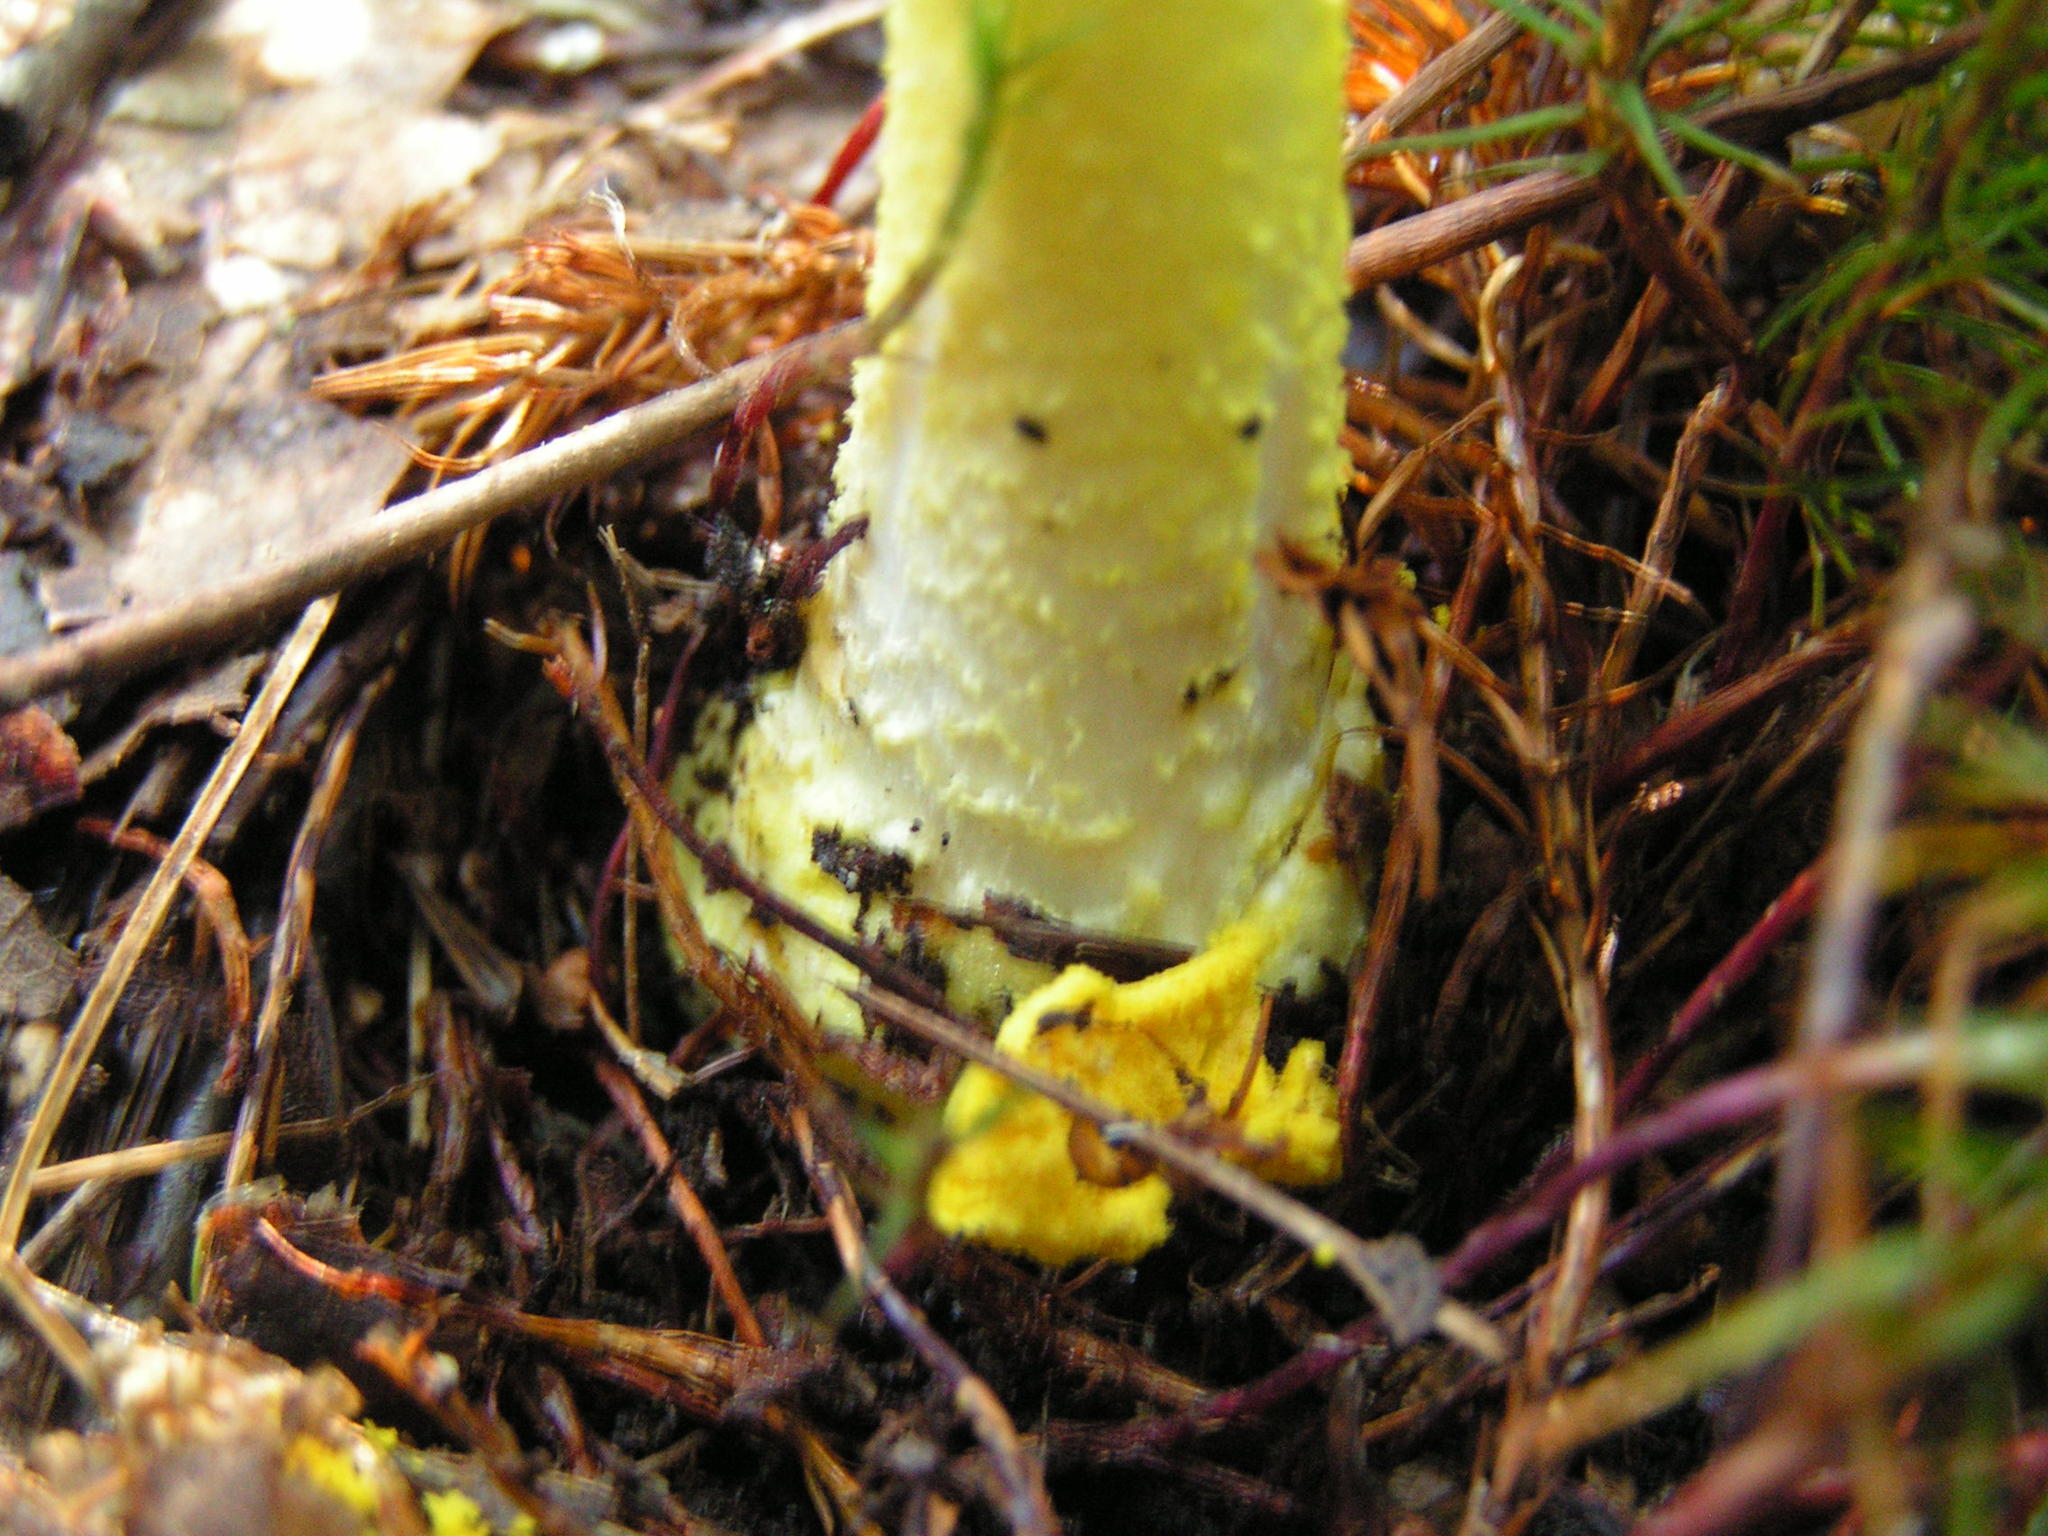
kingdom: Fungi
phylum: Basidiomycota
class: Agaricomycetes
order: Agaricales
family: Amanitaceae
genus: Amanita
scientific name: Amanita flavoconia
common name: Yellow patches
